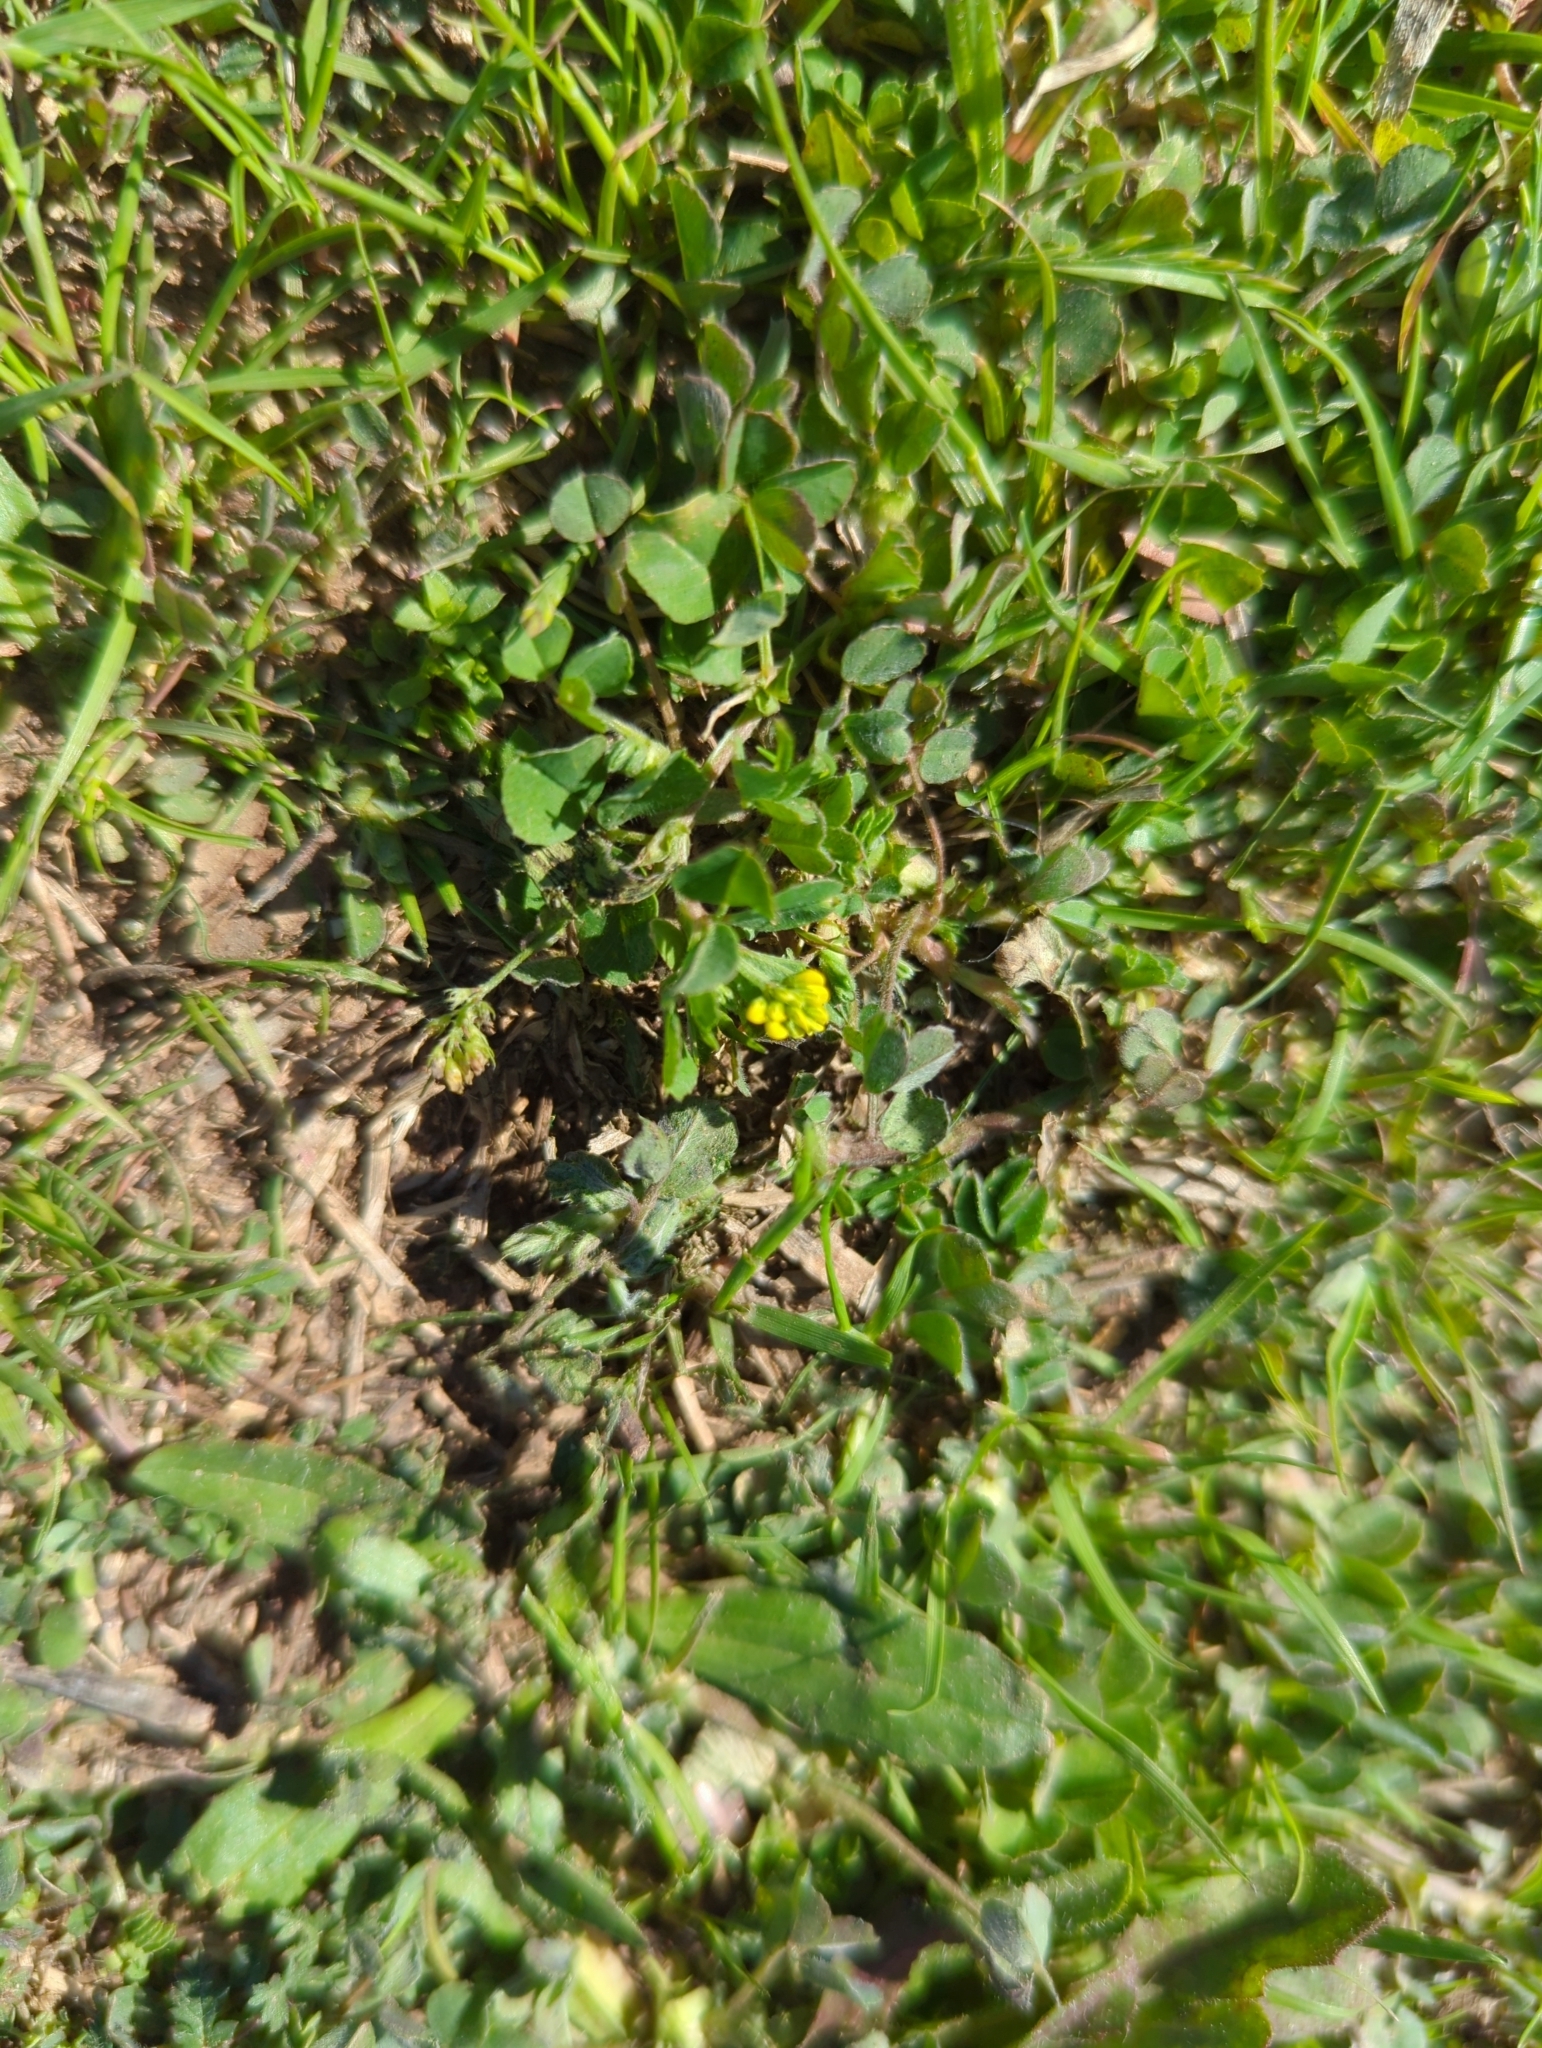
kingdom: Plantae
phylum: Tracheophyta
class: Magnoliopsida
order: Fabales
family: Fabaceae
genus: Medicago
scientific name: Medicago lupulina
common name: Black medick
